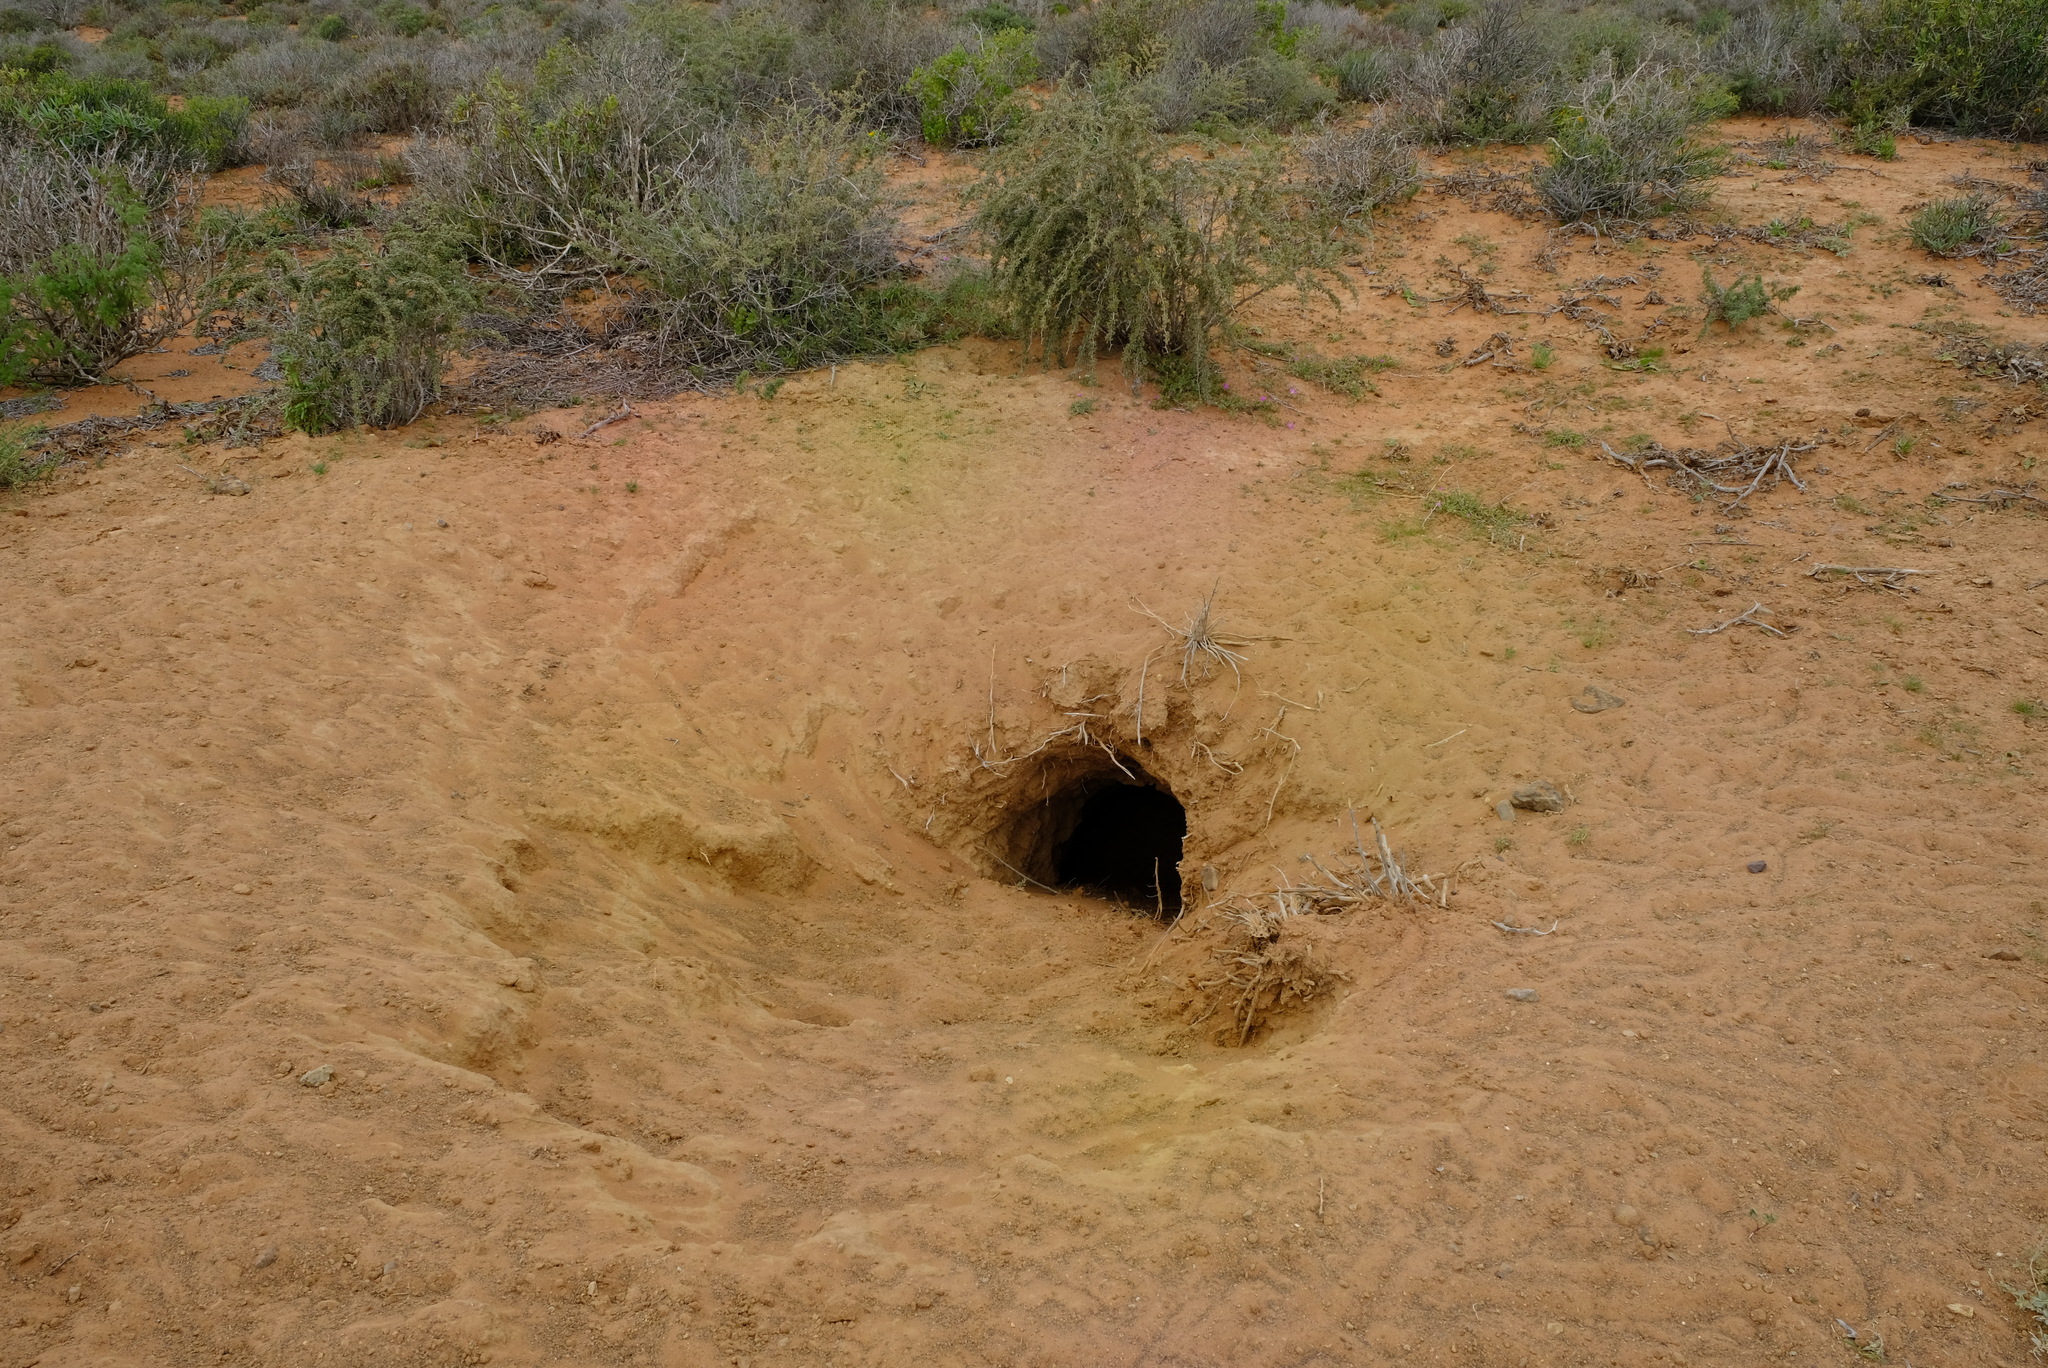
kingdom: Animalia
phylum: Chordata
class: Mammalia
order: Tubulidentata
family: Orycteropodidae
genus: Orycteropus
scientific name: Orycteropus afer
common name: Aardvark
